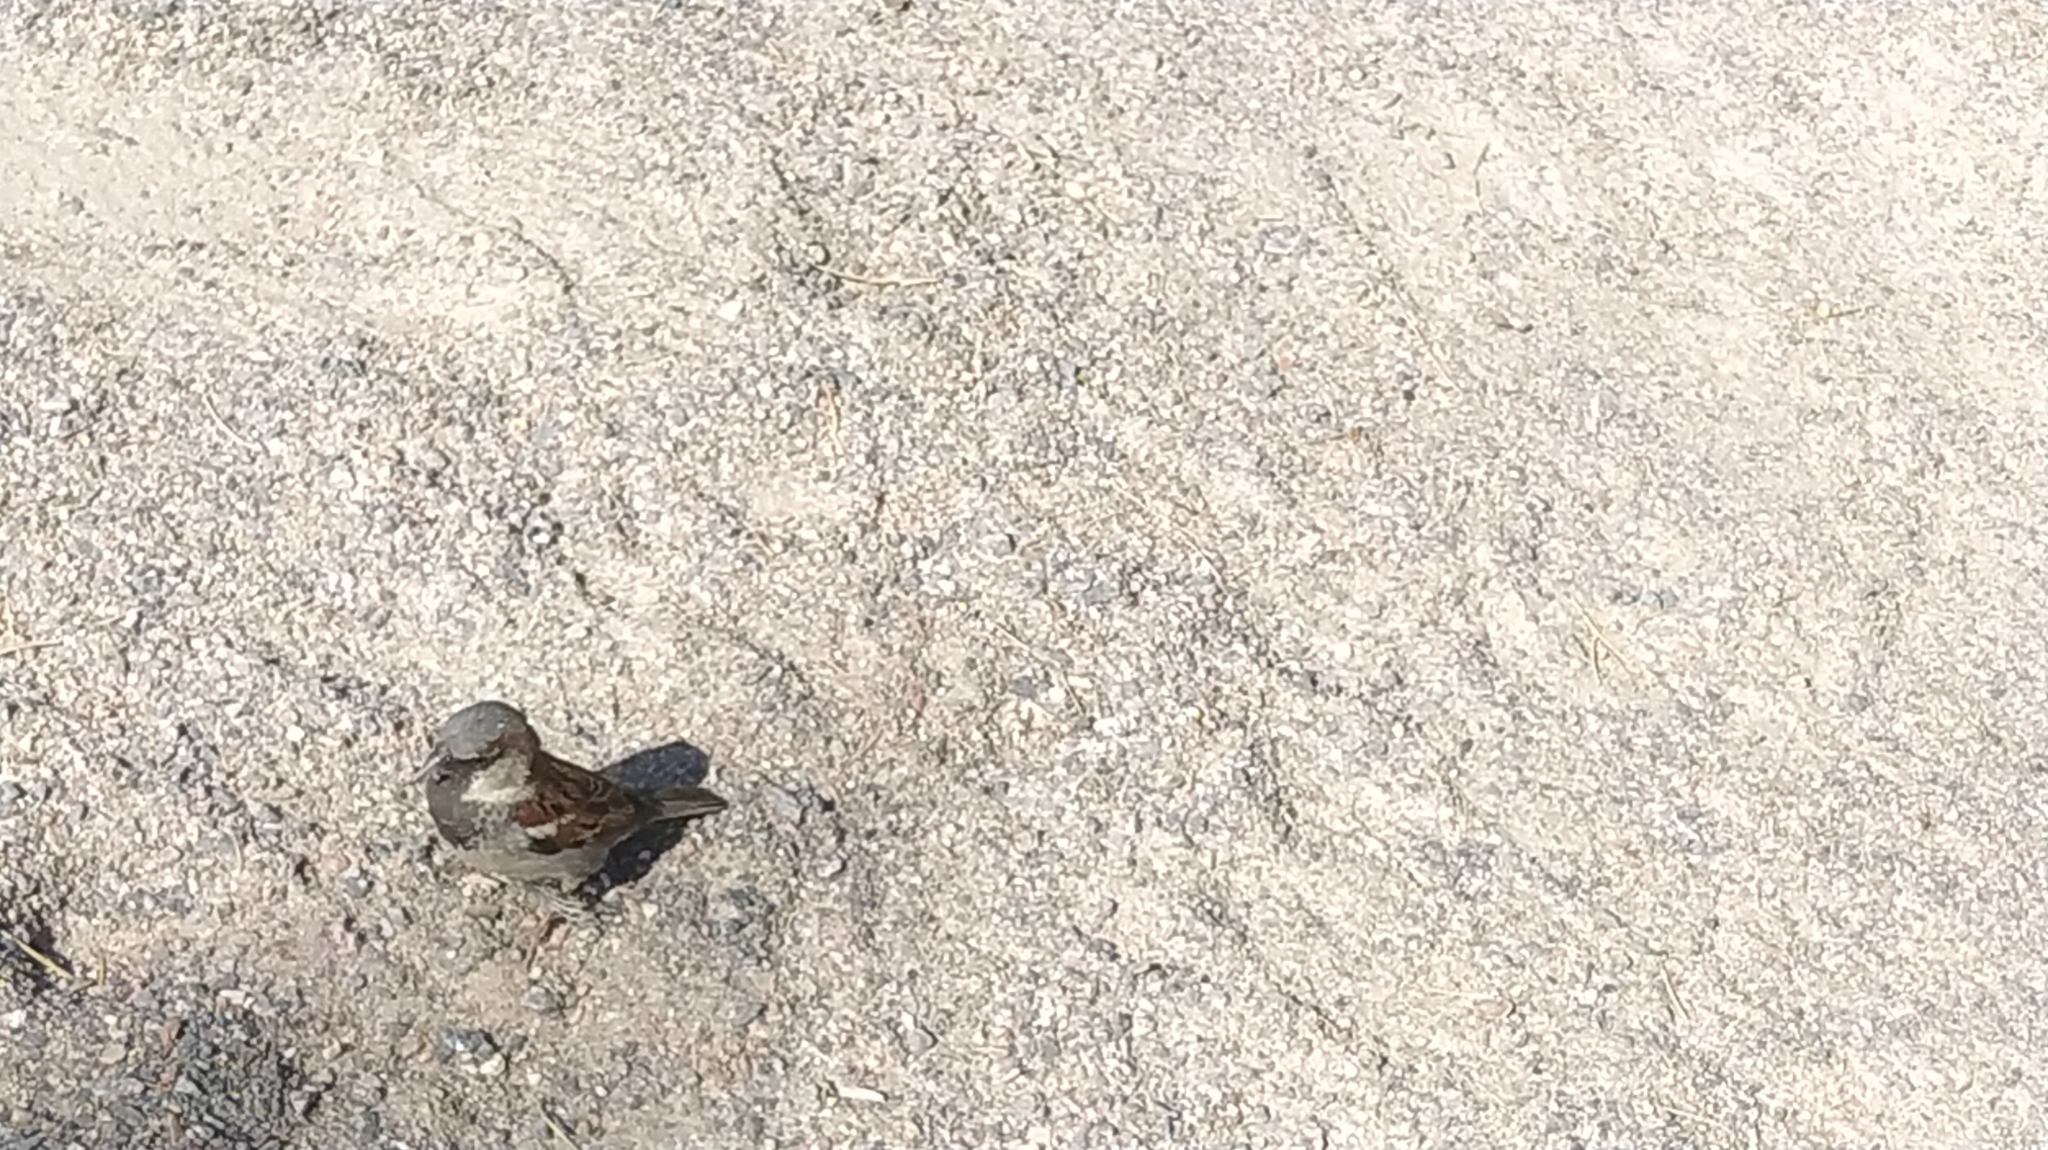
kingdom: Animalia
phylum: Chordata
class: Aves
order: Passeriformes
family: Passeridae
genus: Passer
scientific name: Passer domesticus
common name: House sparrow
